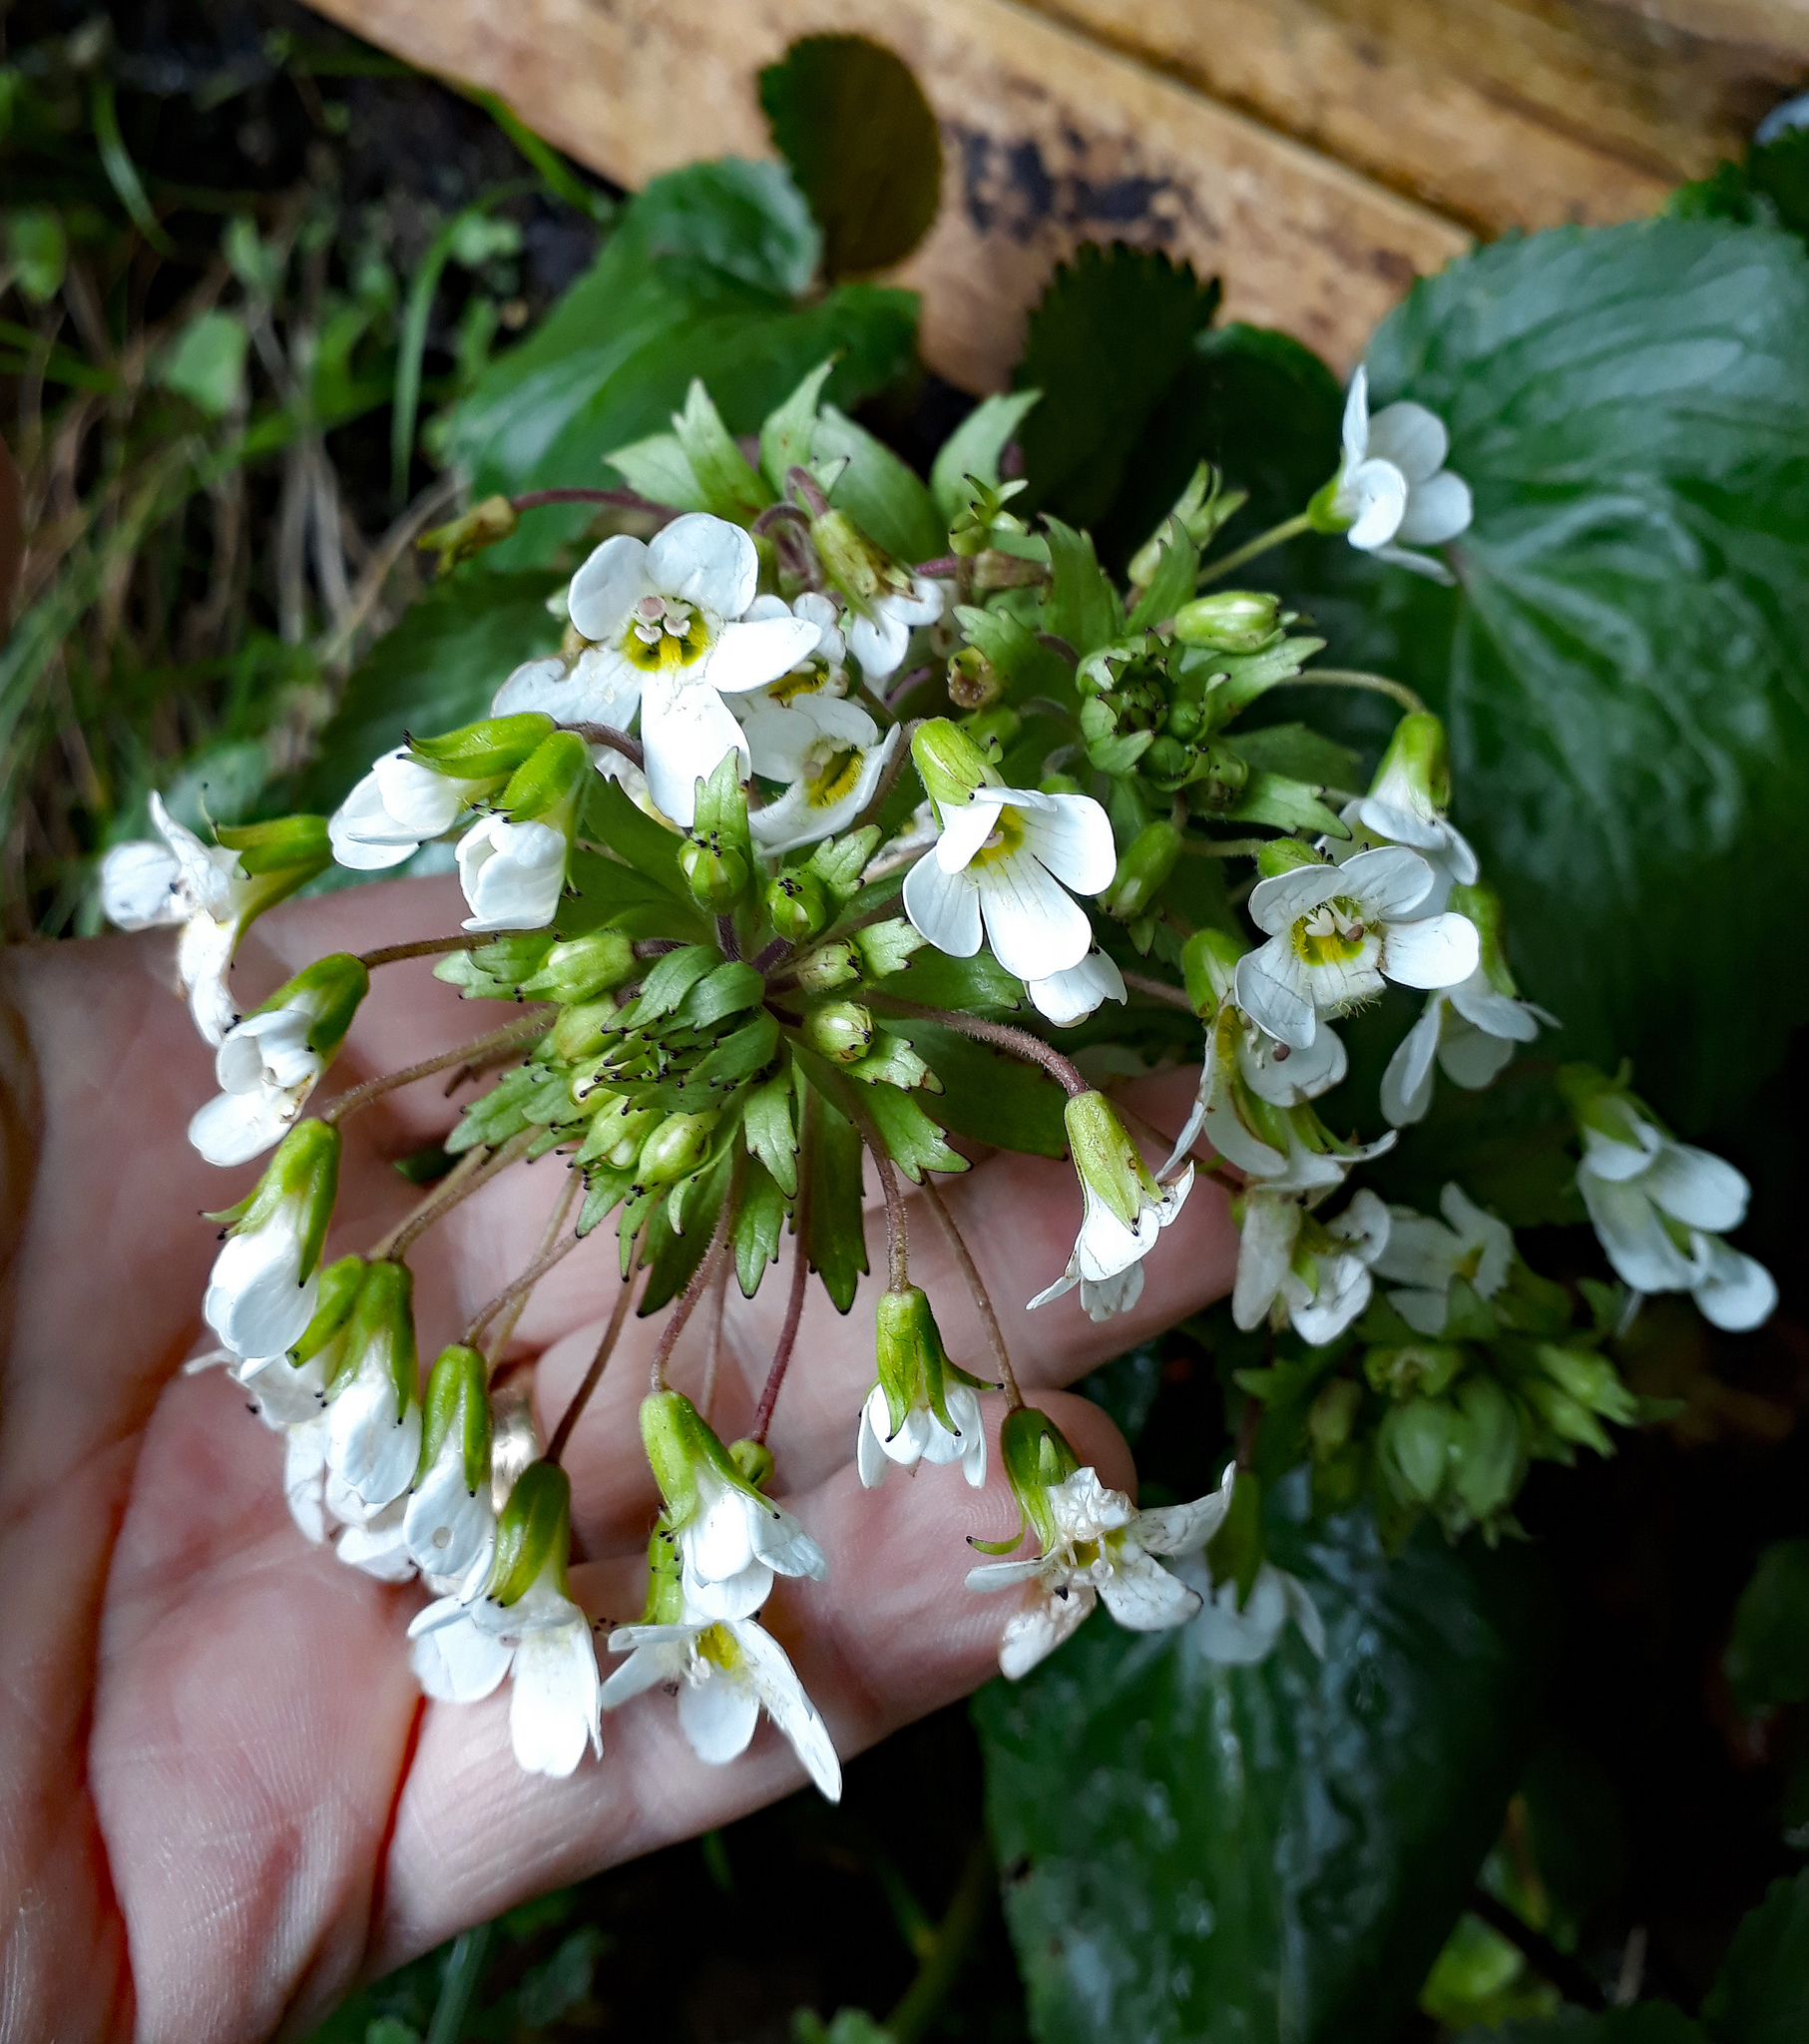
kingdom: Plantae
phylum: Tracheophyta
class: Magnoliopsida
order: Lamiales
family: Plantaginaceae
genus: Ourisia
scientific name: Ourisia macrophylla
